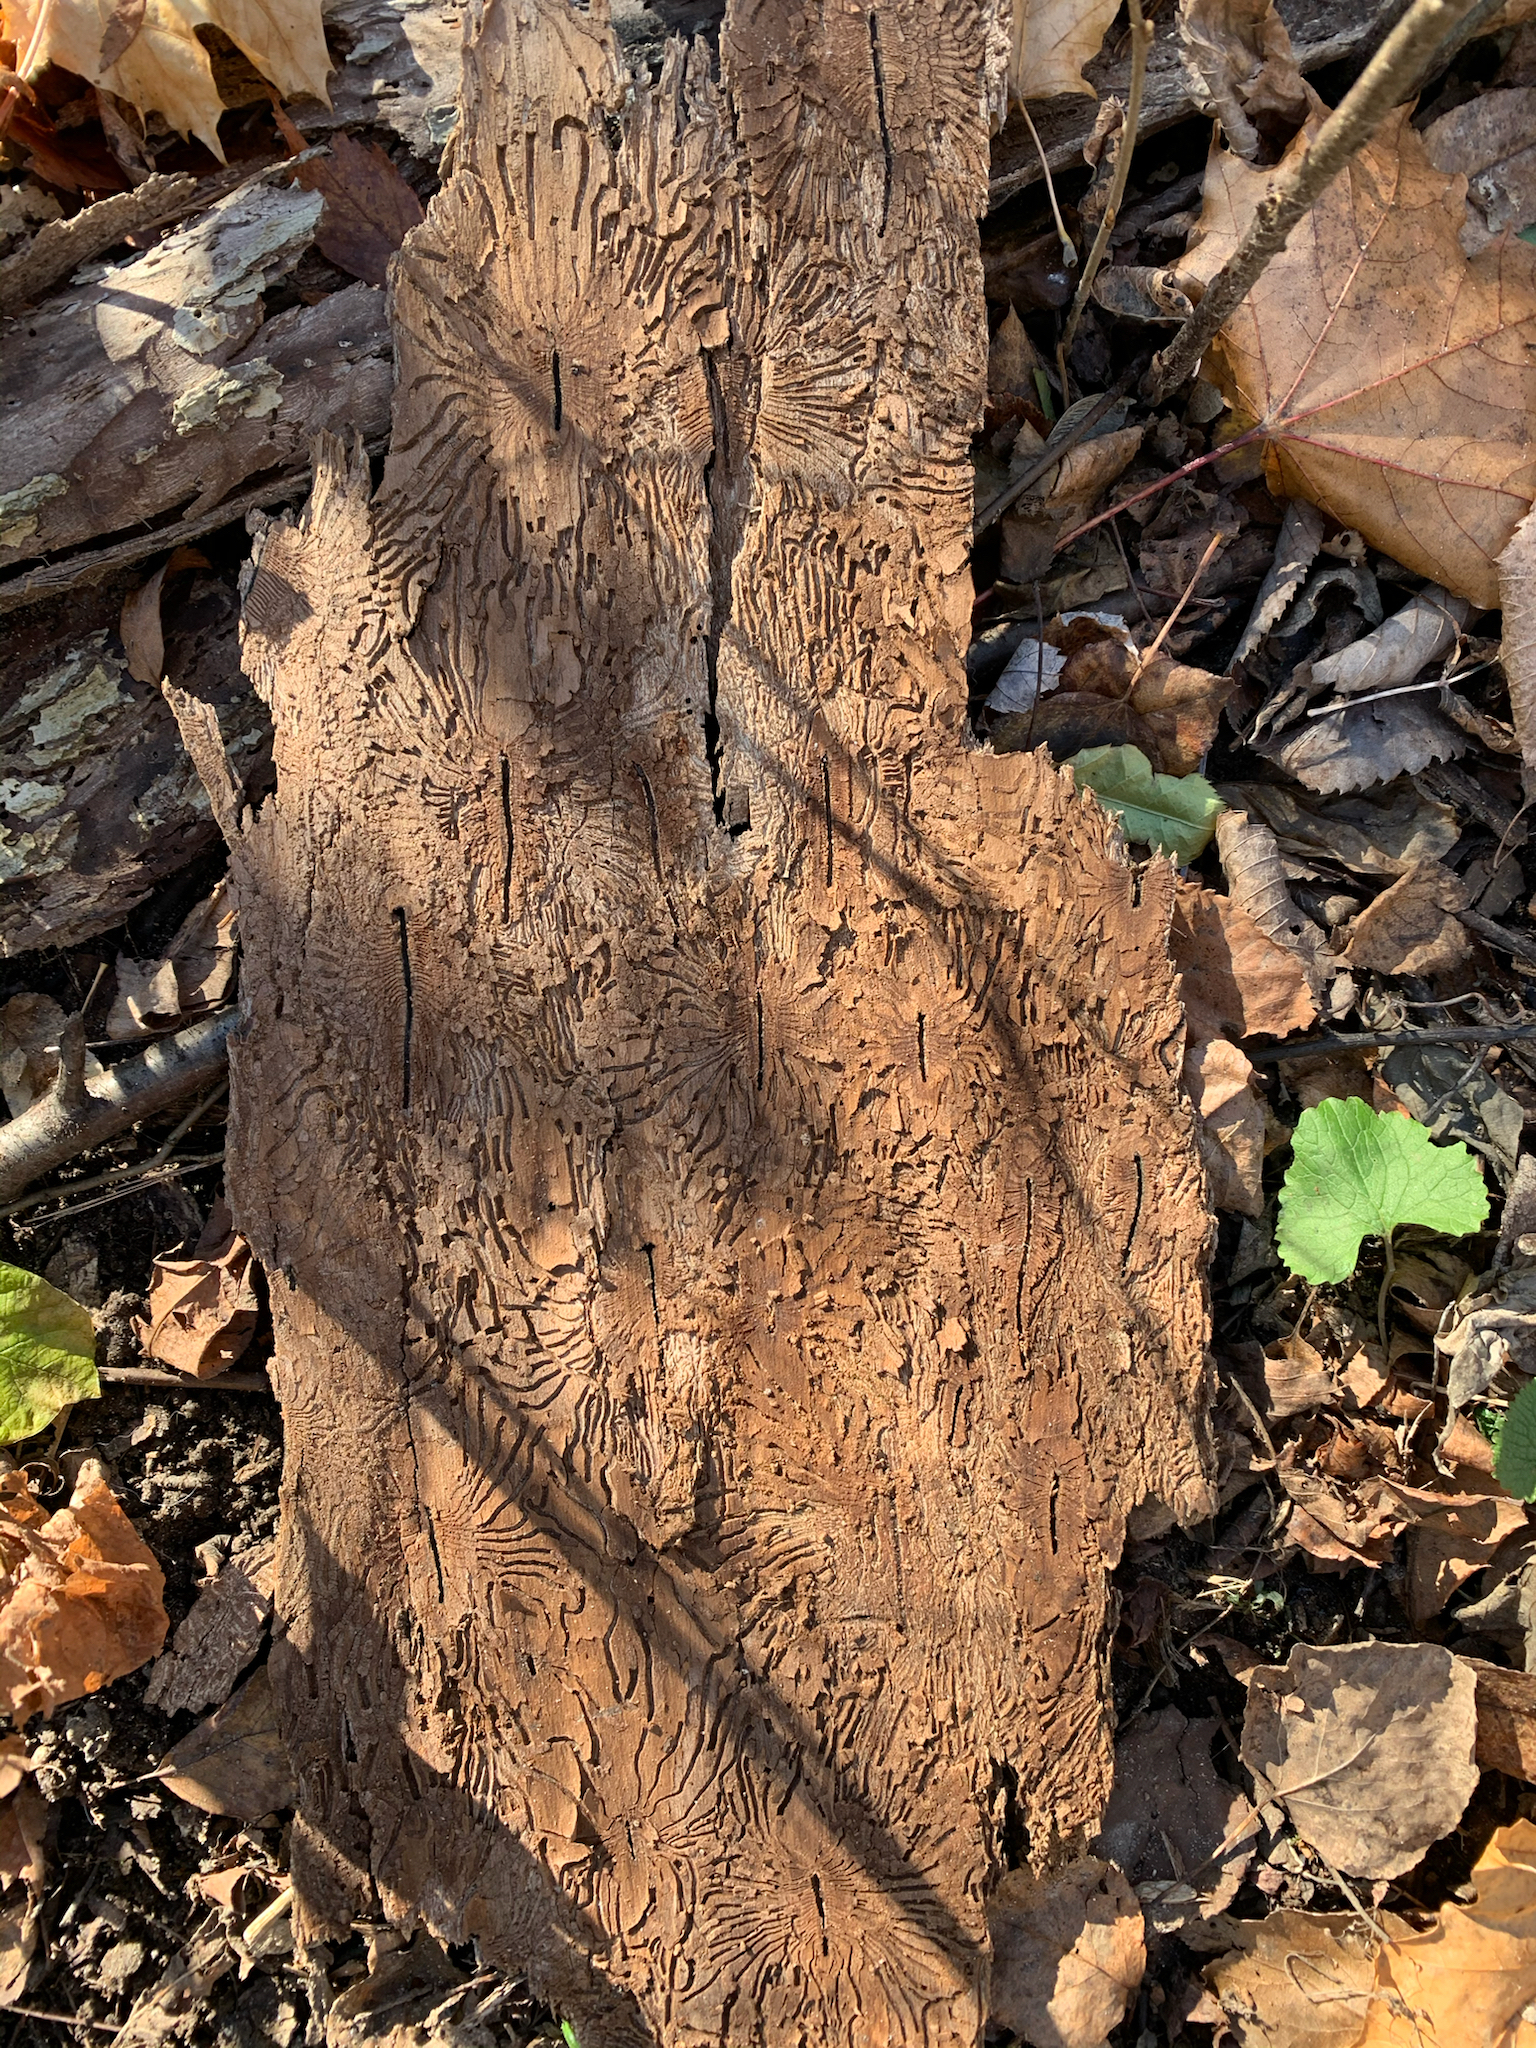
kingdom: Animalia
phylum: Arthropoda
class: Insecta
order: Coleoptera
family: Curculionidae
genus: Scolytus
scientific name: Scolytus multistriatus
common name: European elm bark beetle
